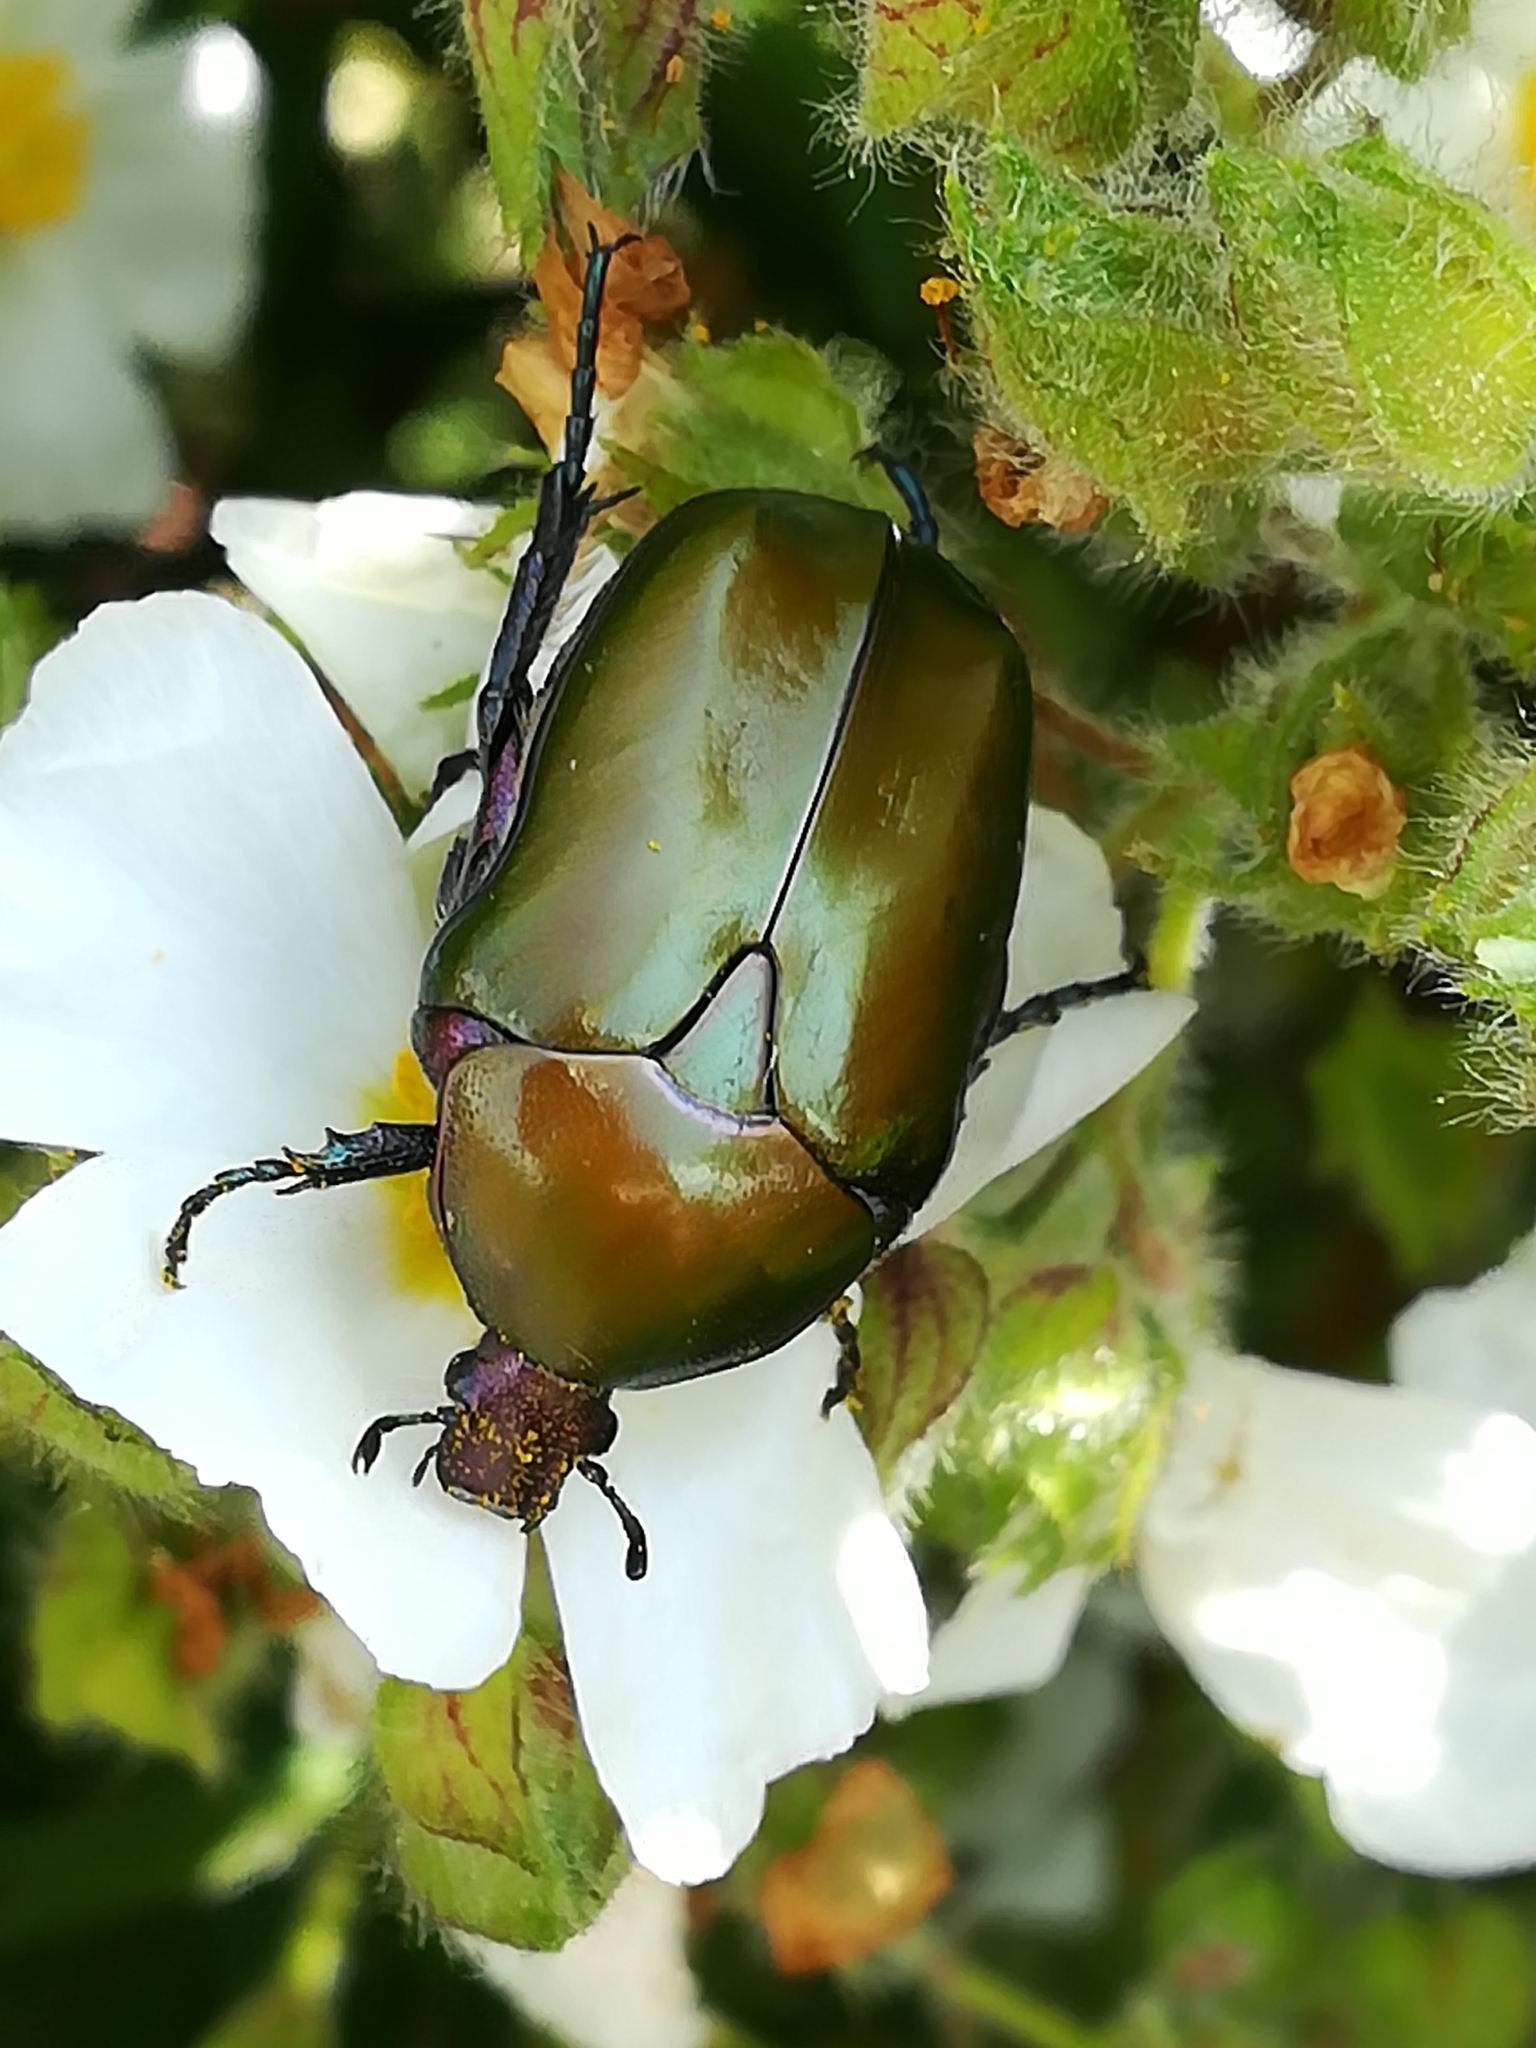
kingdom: Animalia
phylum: Arthropoda
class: Insecta
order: Coleoptera
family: Scarabaeidae
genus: Protaetia
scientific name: Protaetia cuprea
